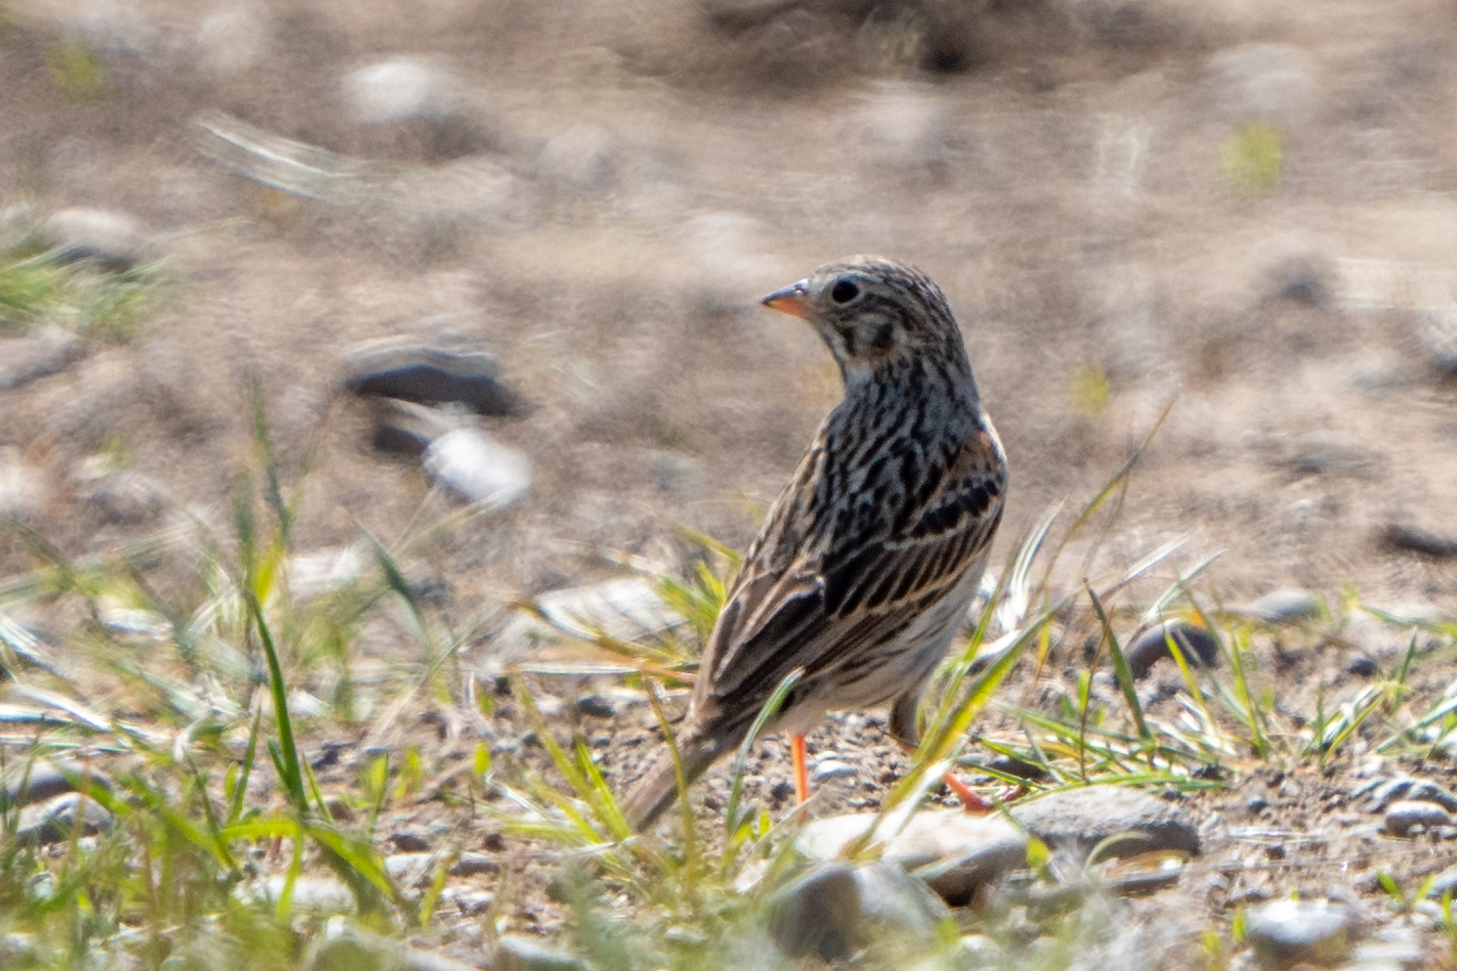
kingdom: Animalia
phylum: Chordata
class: Aves
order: Passeriformes
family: Passerellidae
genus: Pooecetes
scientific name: Pooecetes gramineus
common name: Vesper sparrow
